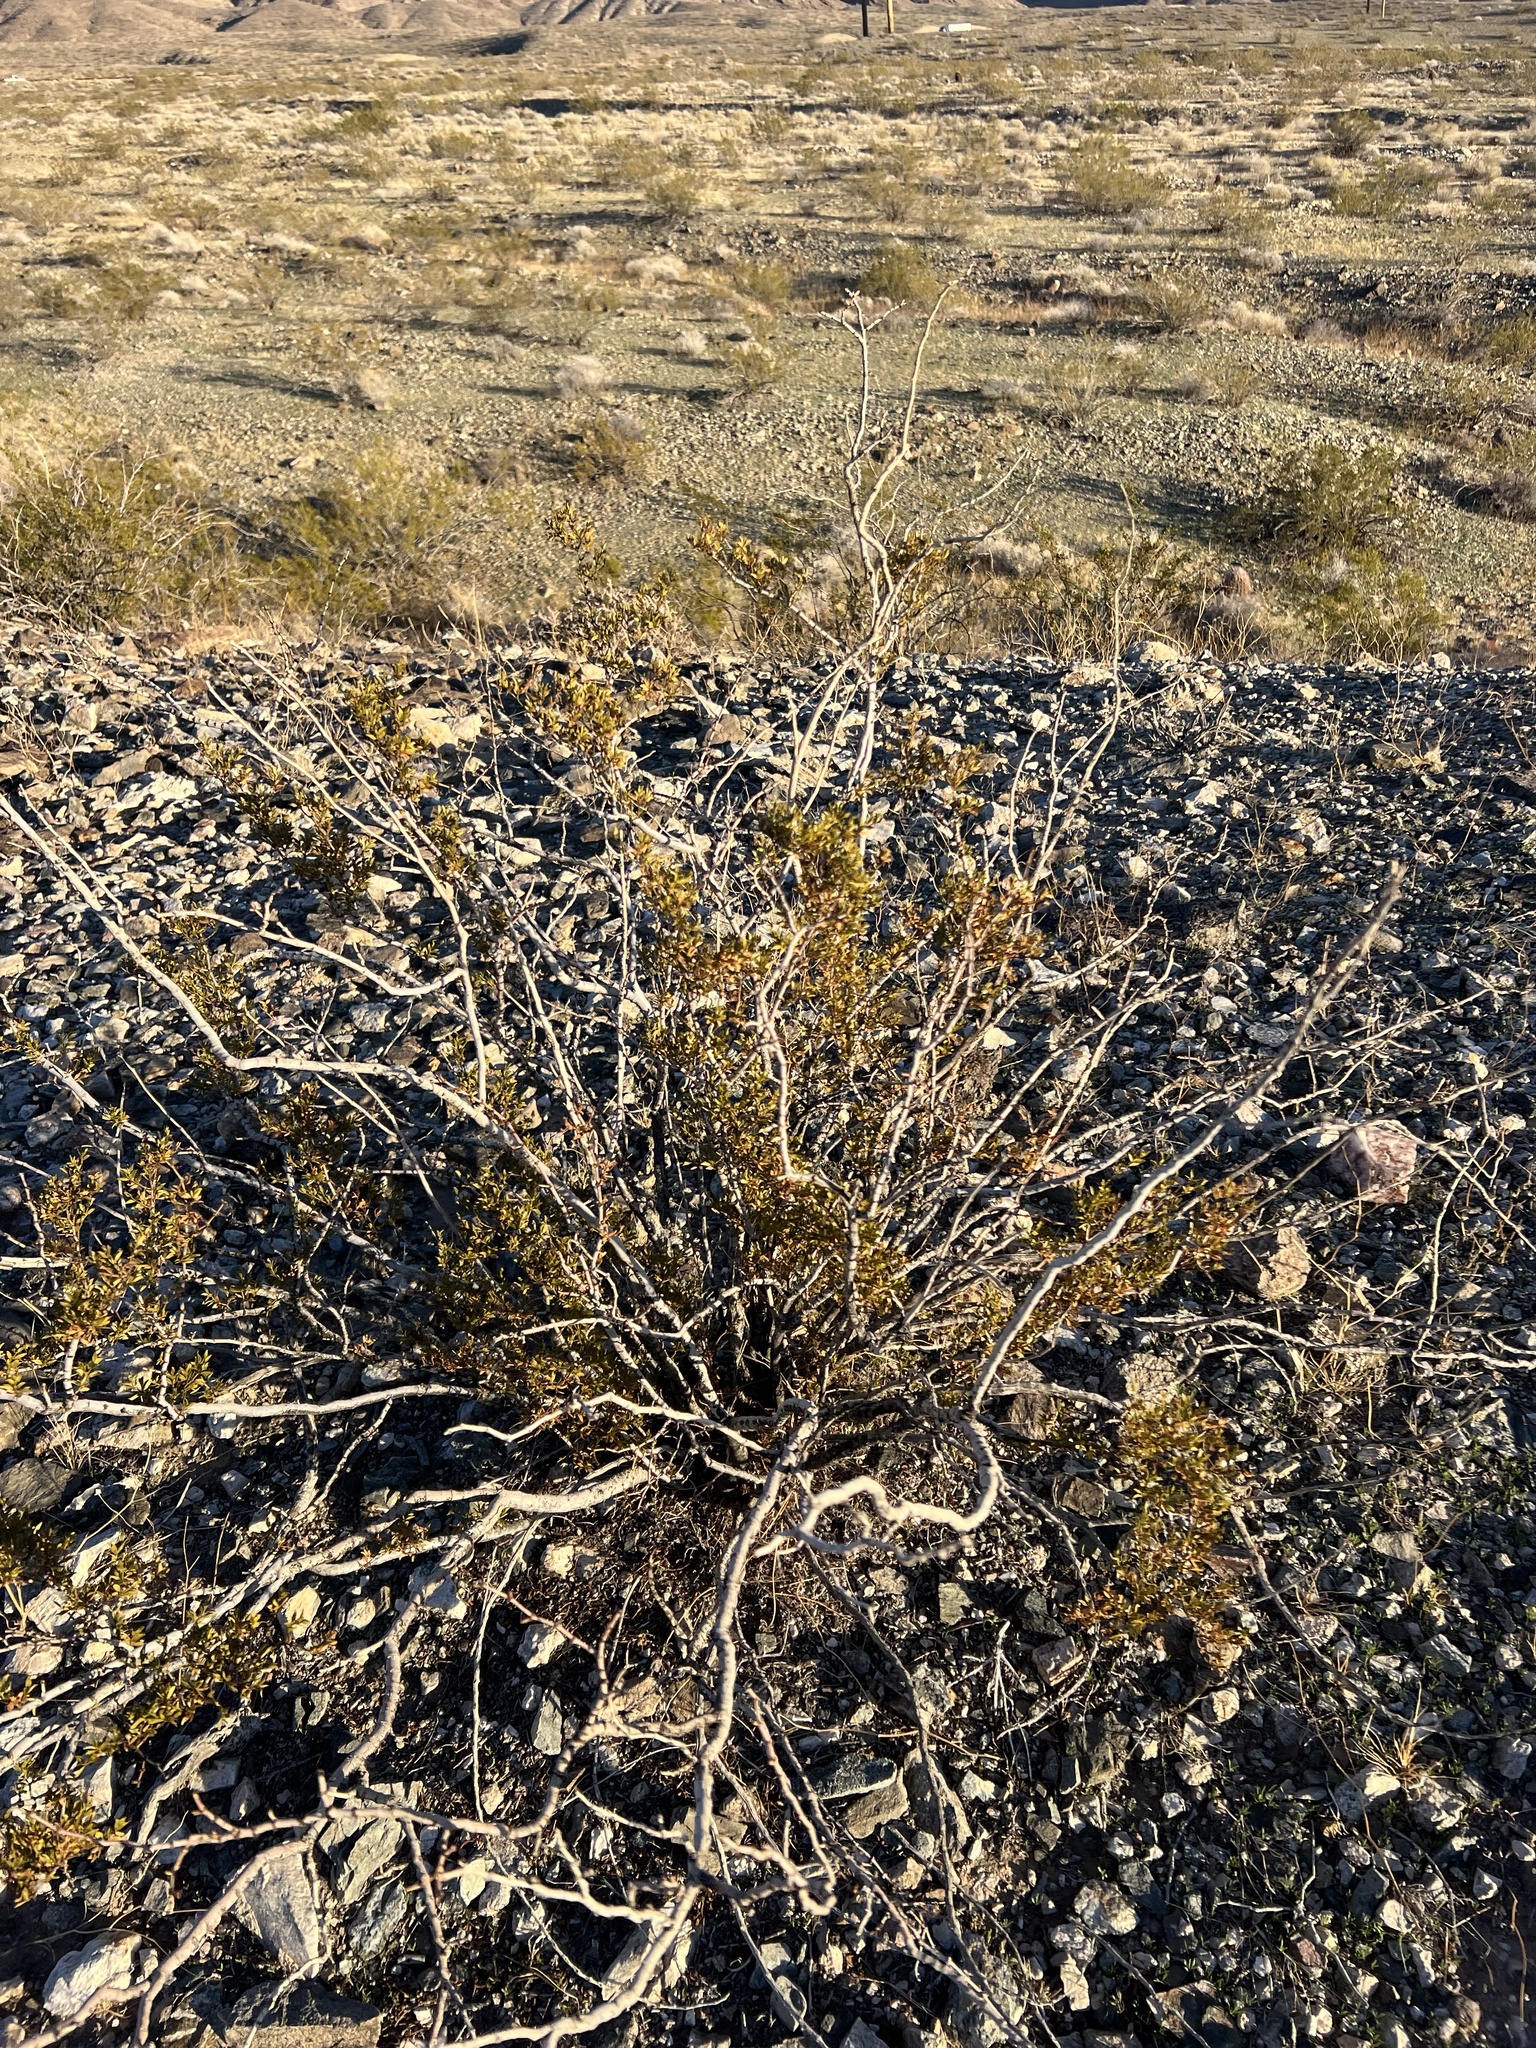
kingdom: Plantae
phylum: Tracheophyta
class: Magnoliopsida
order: Zygophyllales
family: Zygophyllaceae
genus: Larrea
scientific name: Larrea tridentata
